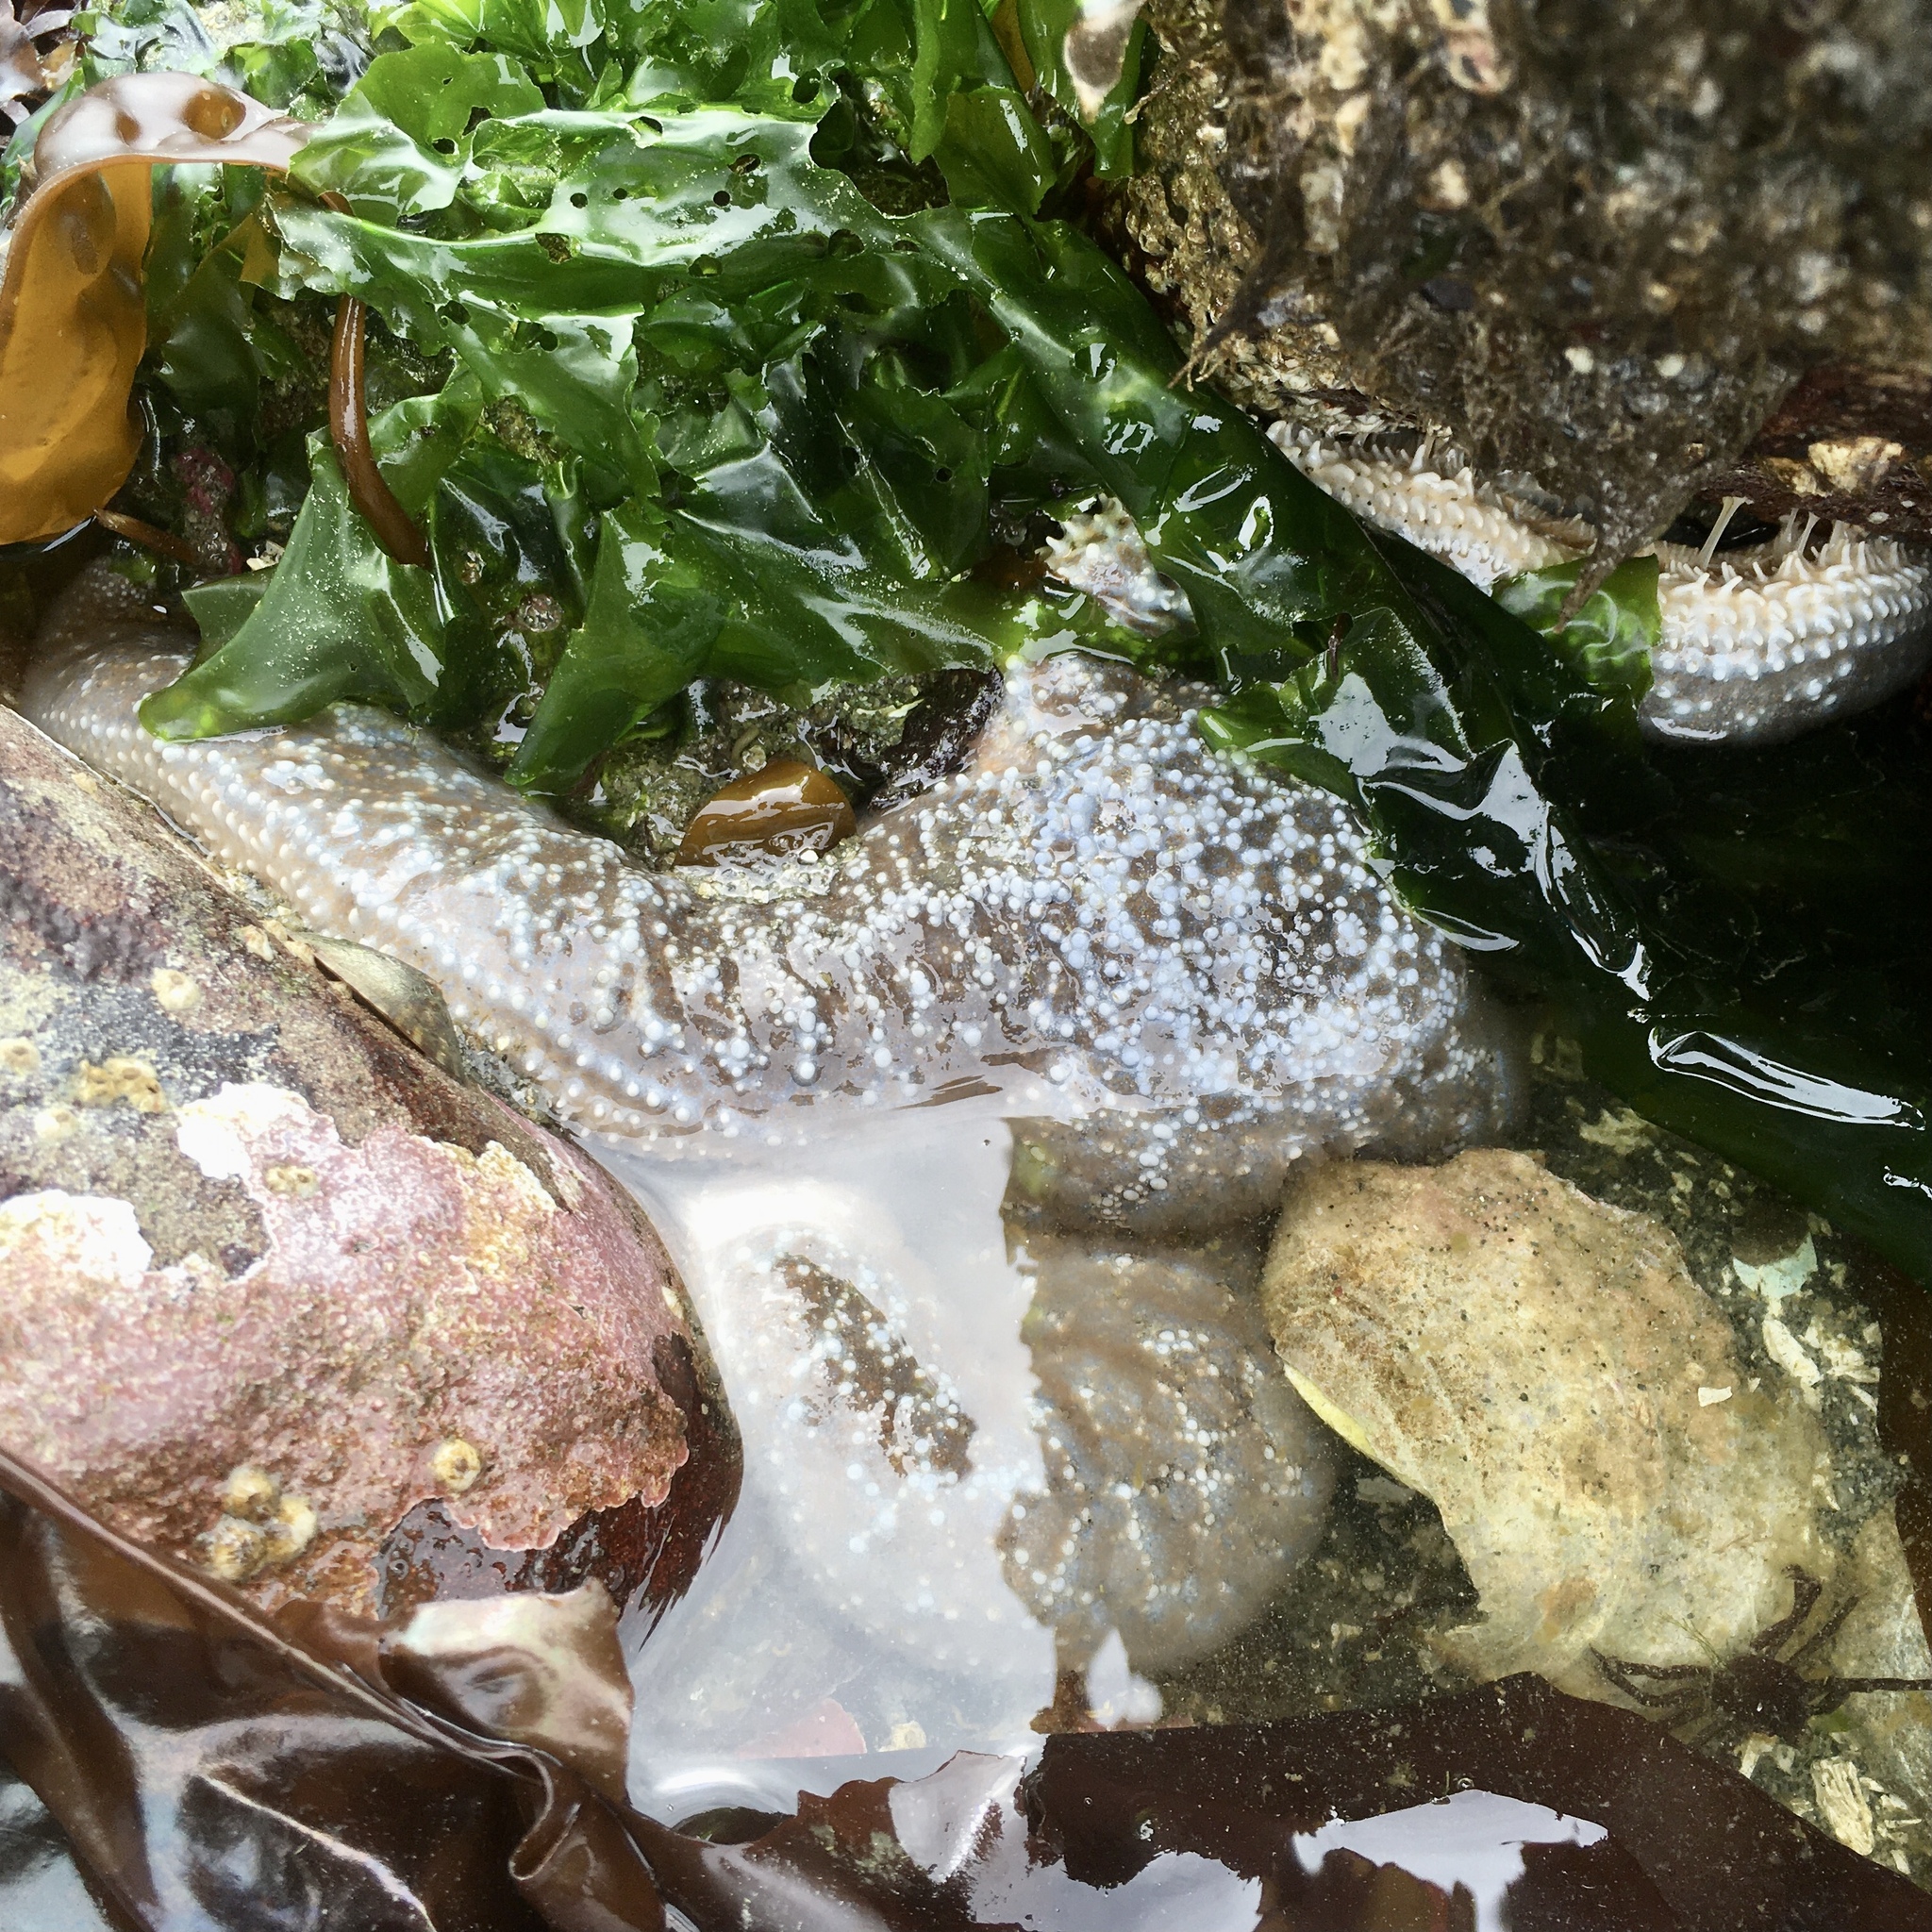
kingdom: Animalia
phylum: Echinodermata
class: Asteroidea
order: Forcipulatida
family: Asteriidae
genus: Evasterias
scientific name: Evasterias troschelii
